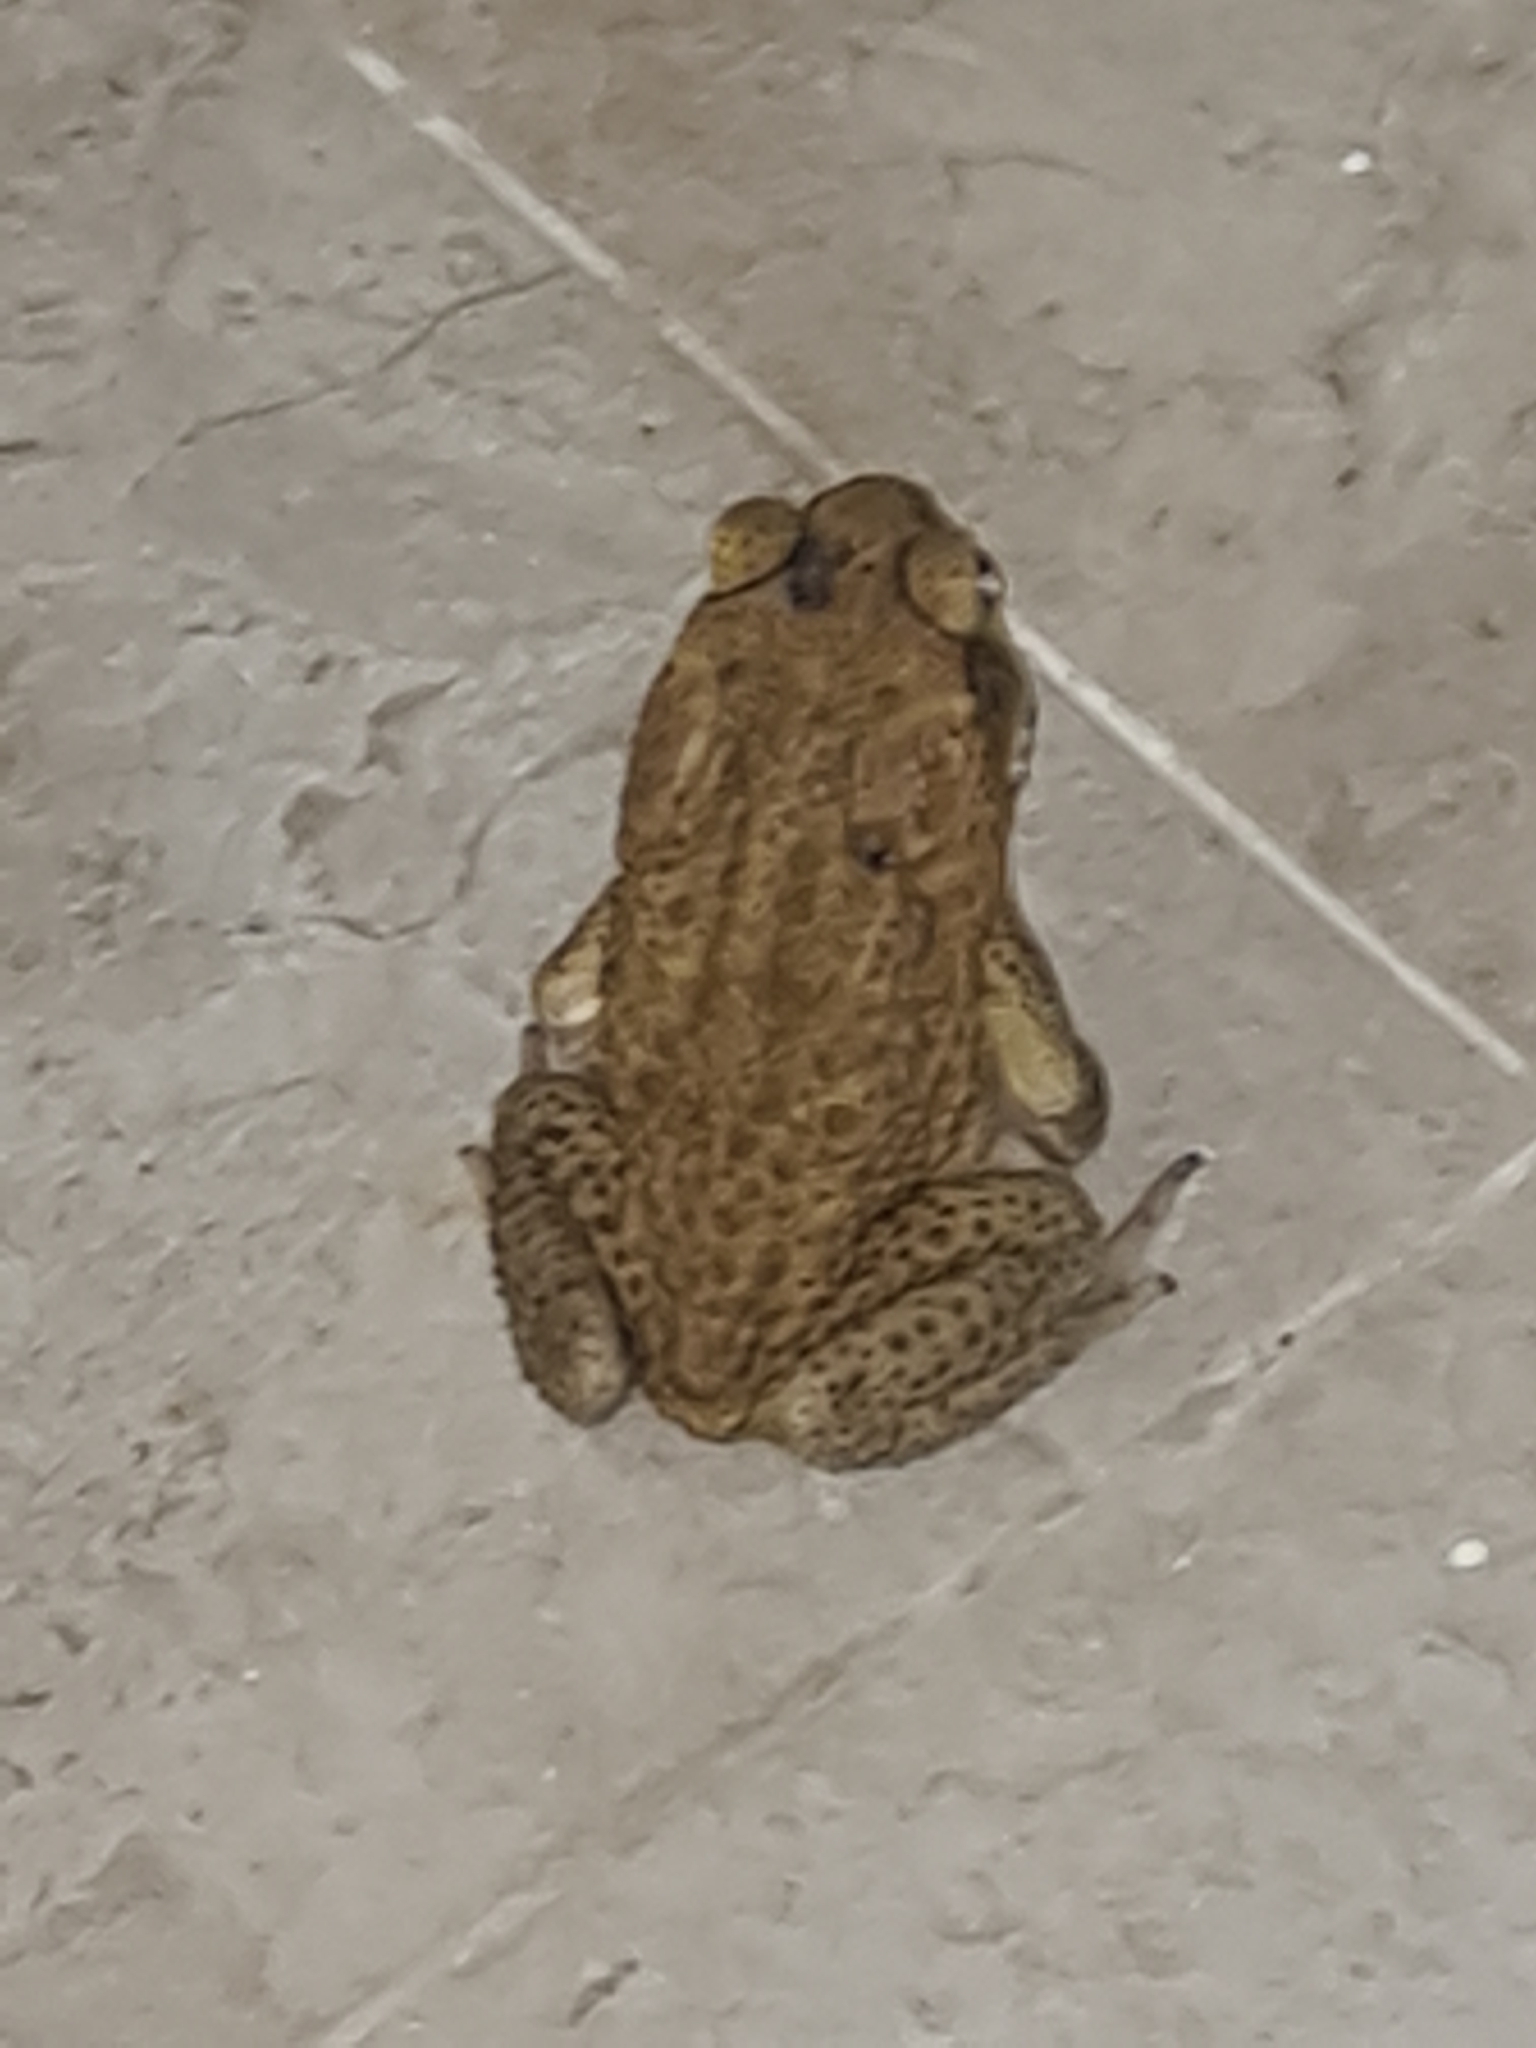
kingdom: Animalia
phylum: Chordata
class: Amphibia
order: Anura
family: Bufonidae
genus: Rhinella
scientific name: Rhinella marina
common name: Cane toad
